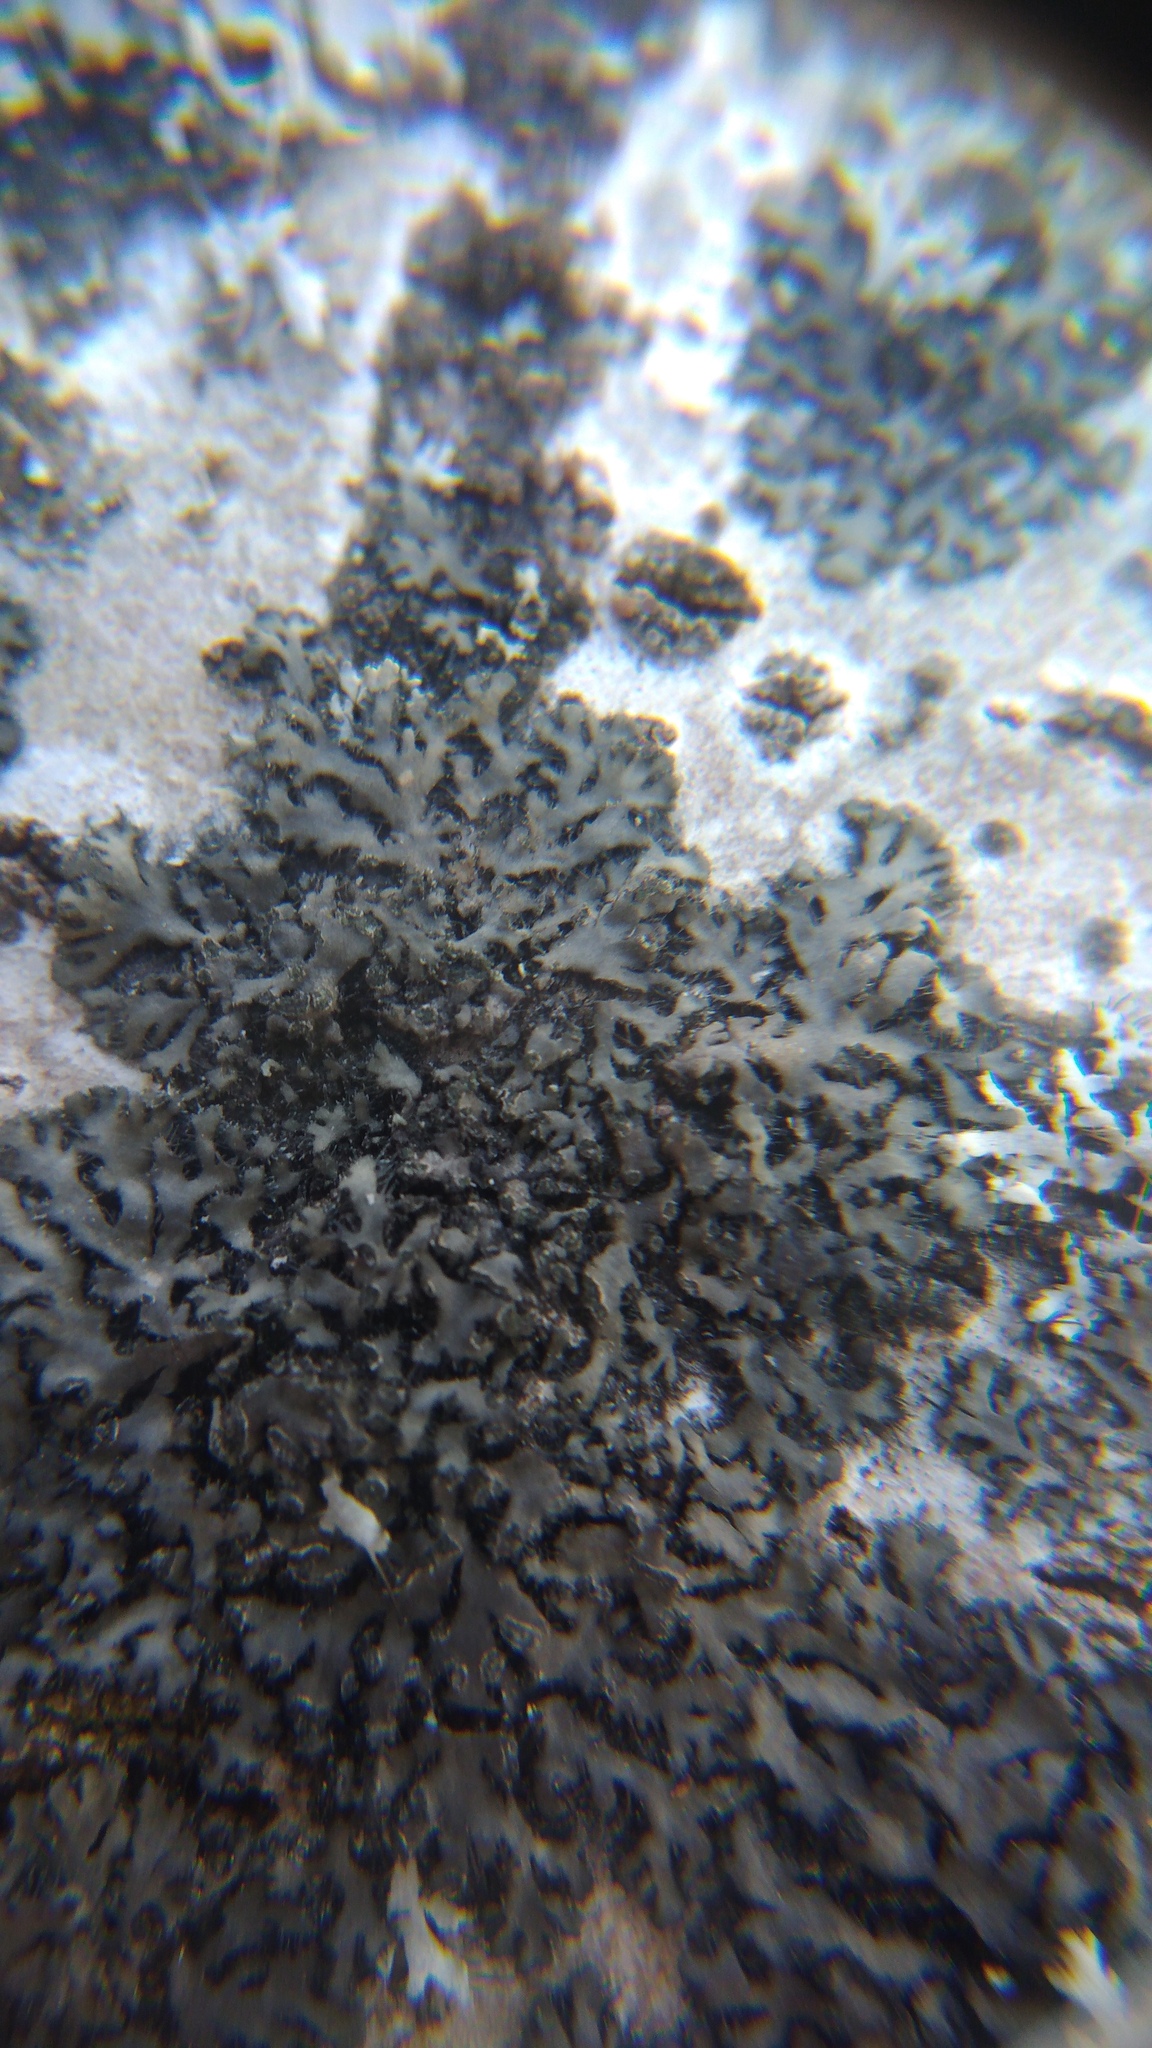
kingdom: Fungi
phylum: Ascomycota
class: Lecanoromycetes
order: Caliciales
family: Physciaceae
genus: Phaeophyscia
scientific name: Phaeophyscia orbicularis
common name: Mealy shadow lichen
